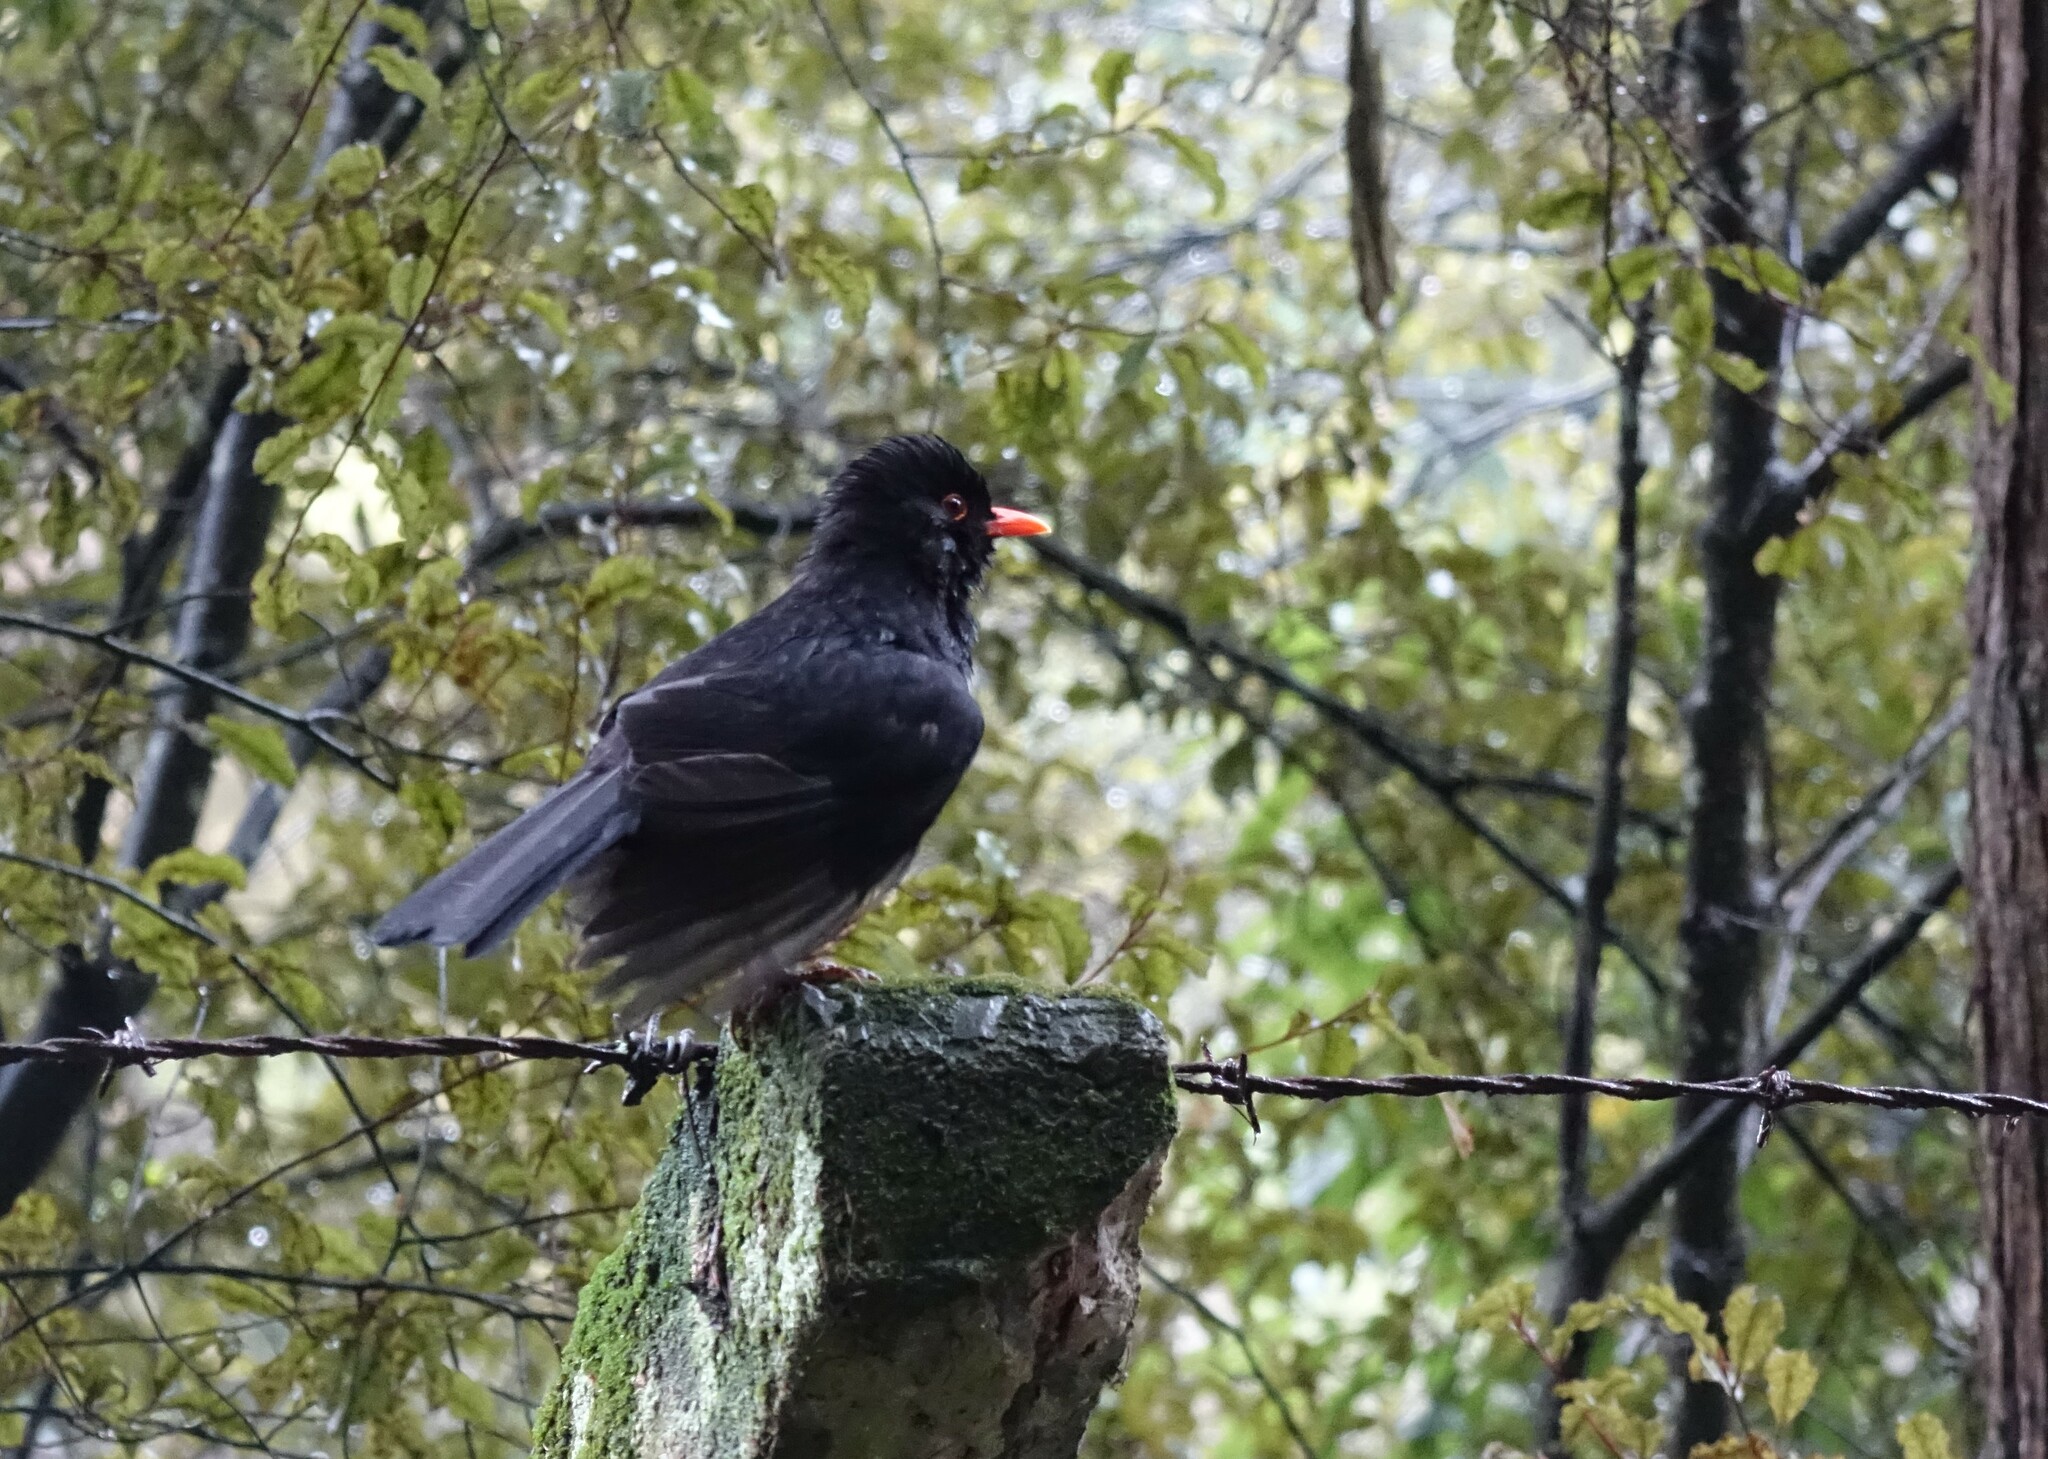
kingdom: Animalia
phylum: Chordata
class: Aves
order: Passeriformes
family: Turdidae
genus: Turdus
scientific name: Turdus merula
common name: Common blackbird
